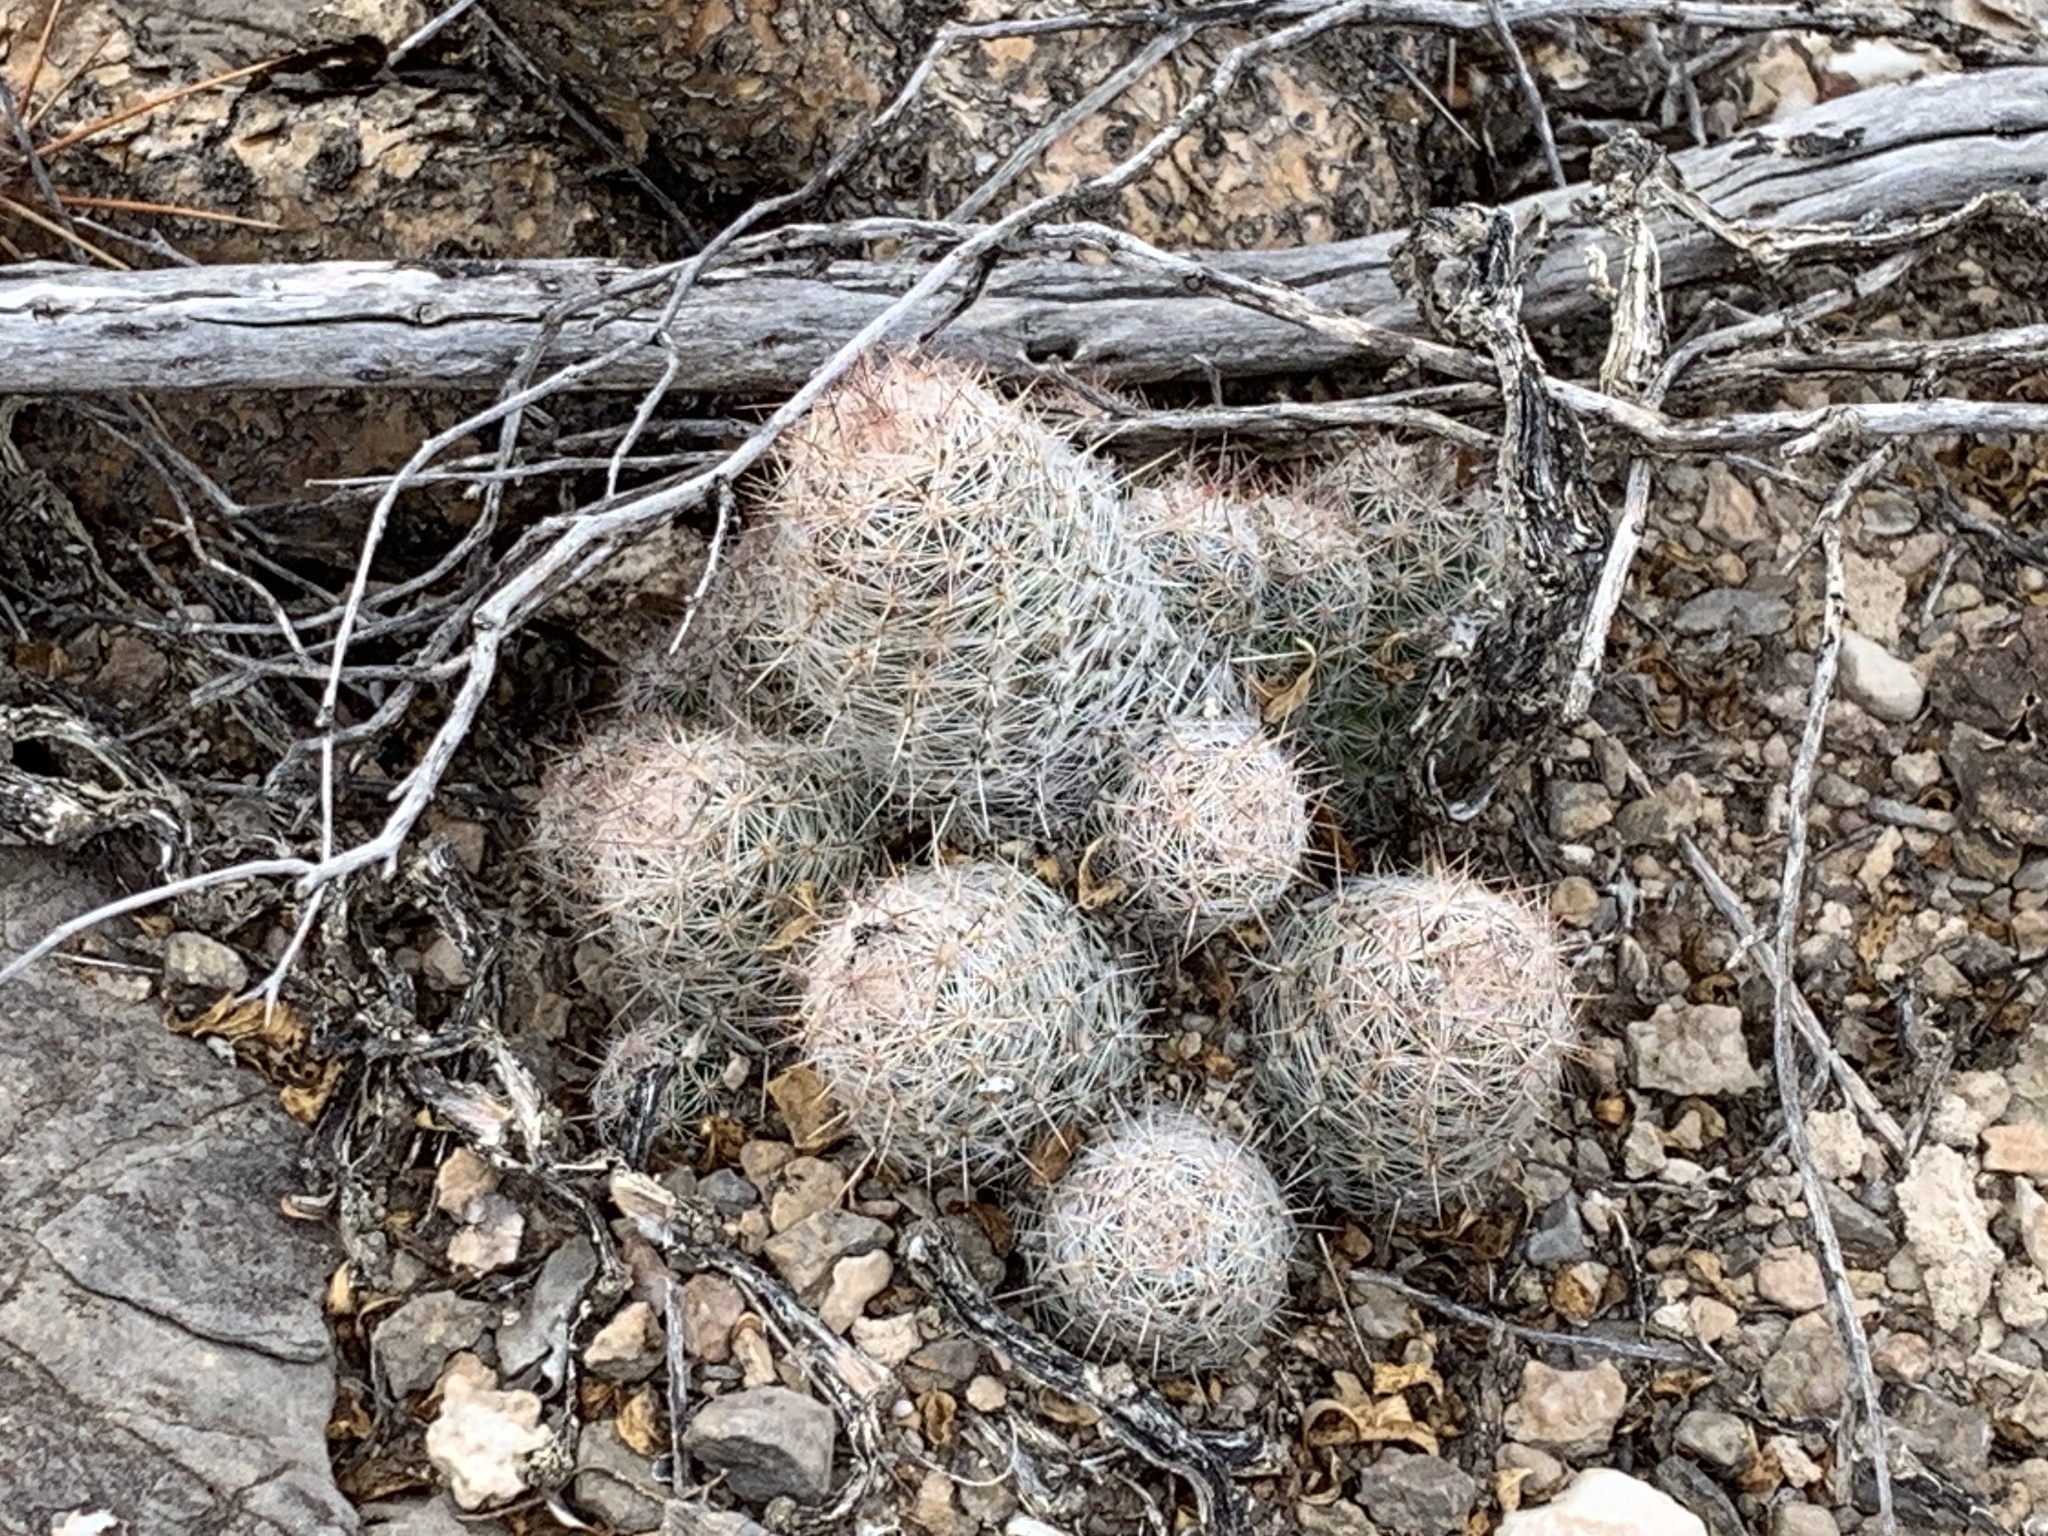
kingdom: Plantae
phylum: Tracheophyta
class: Magnoliopsida
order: Caryophyllales
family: Cactaceae
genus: Pelecyphora
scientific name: Pelecyphora tuberculosa
